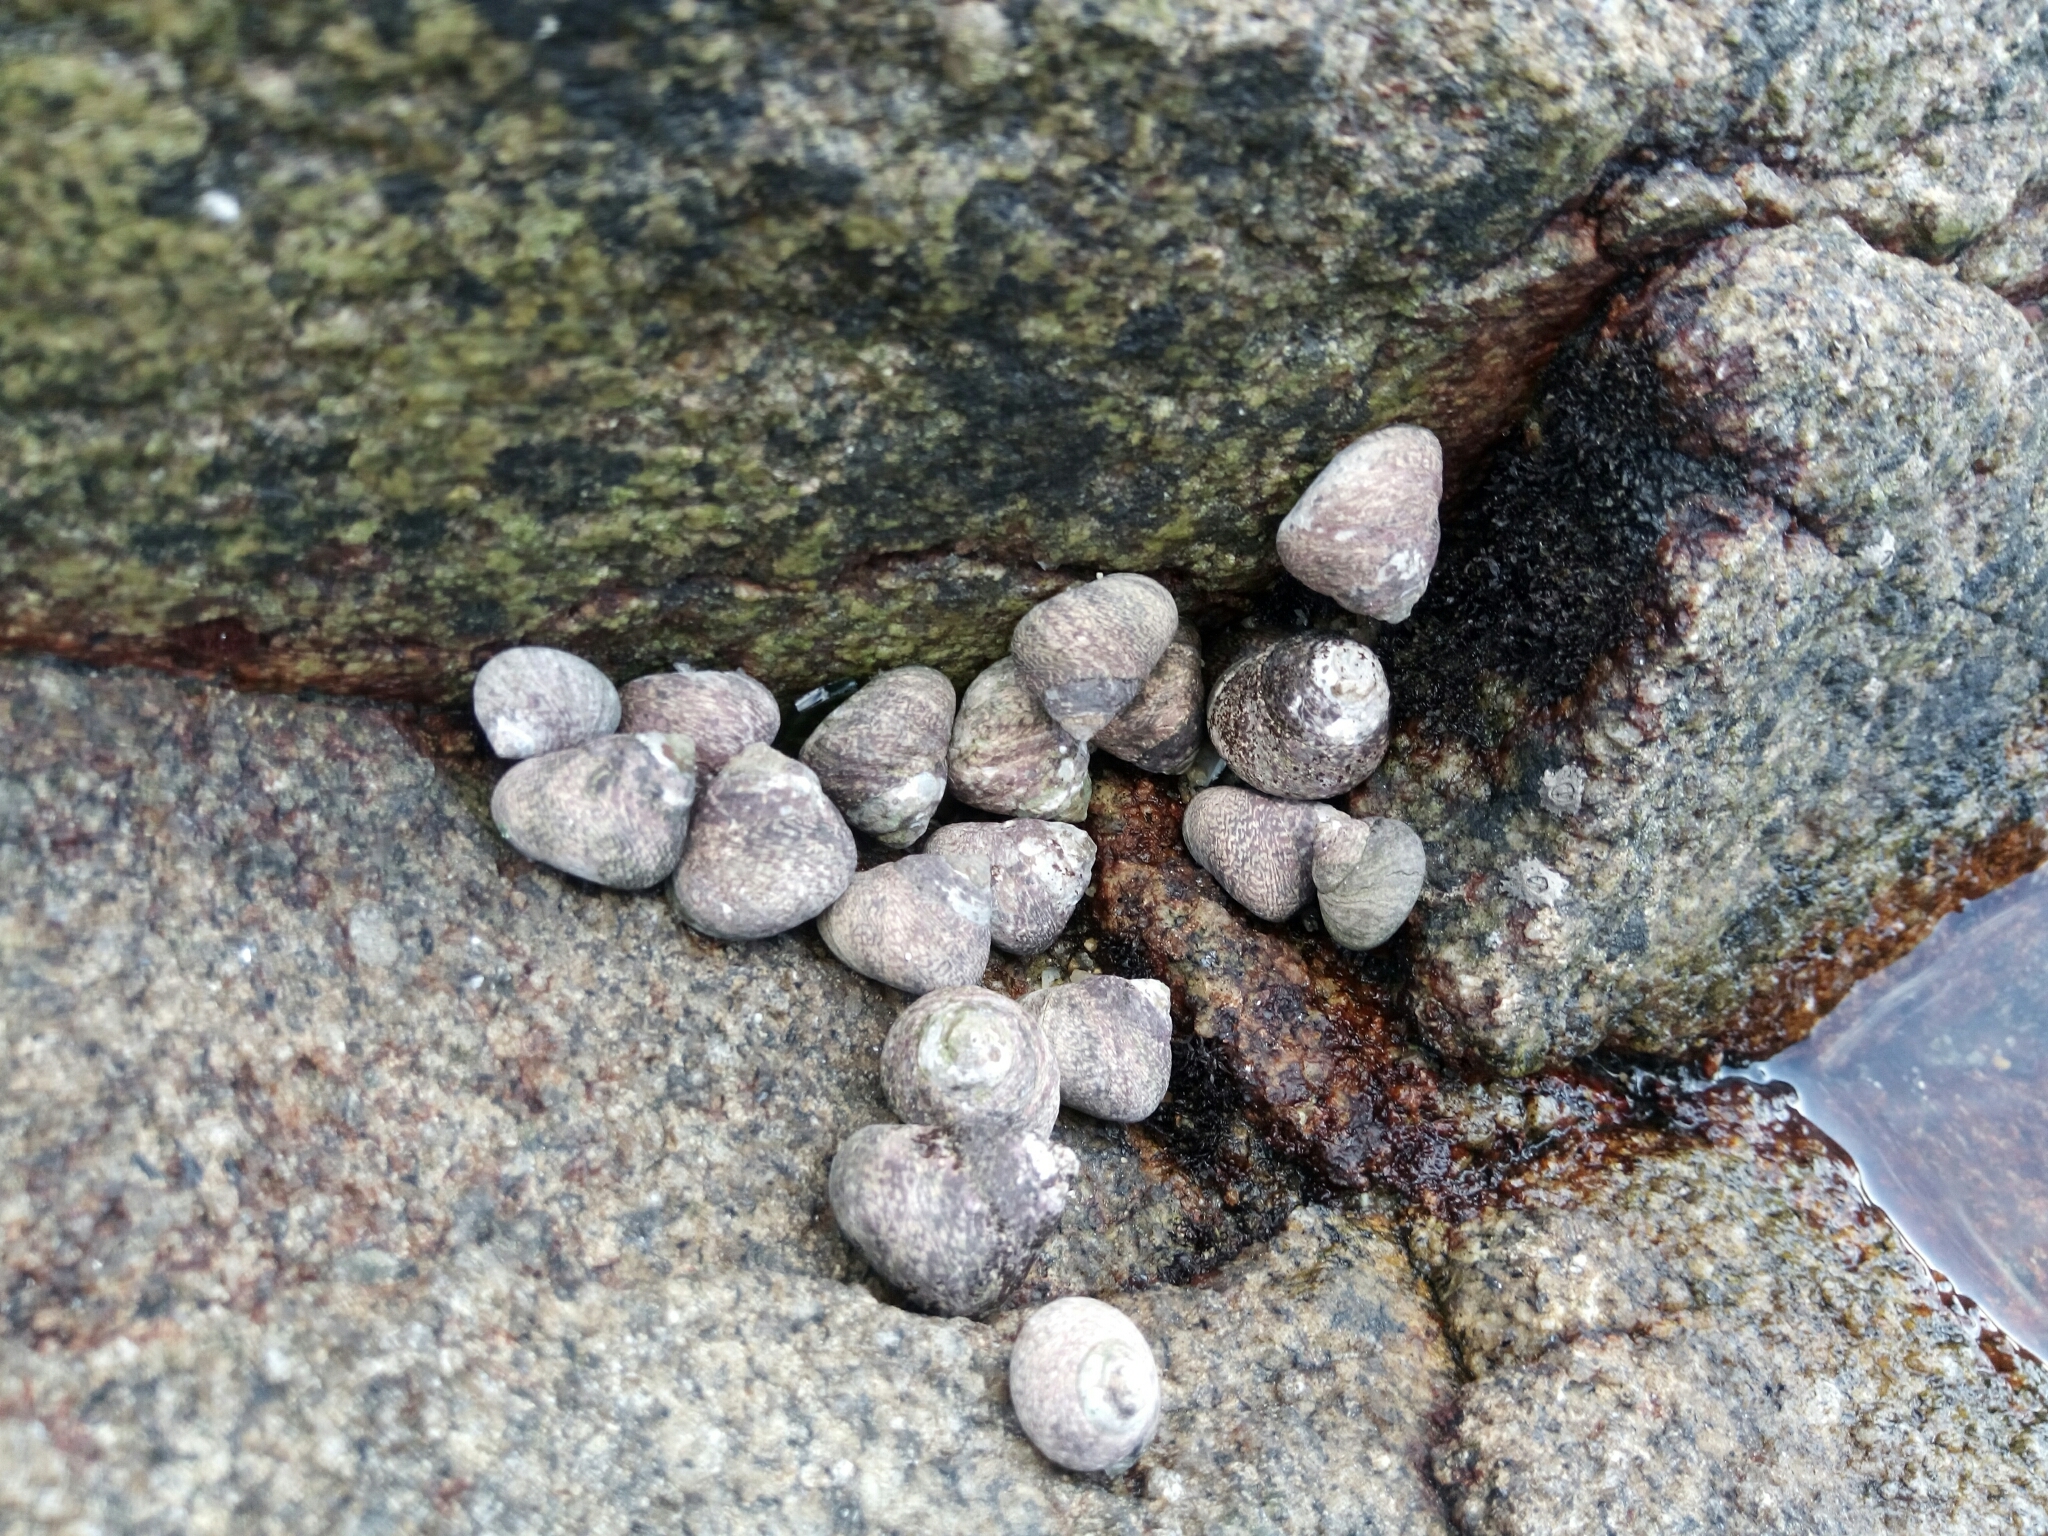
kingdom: Animalia
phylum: Mollusca
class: Gastropoda
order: Trochida
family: Trochidae
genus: Phorcus
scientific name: Phorcus lineatus
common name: Toothed top shell
